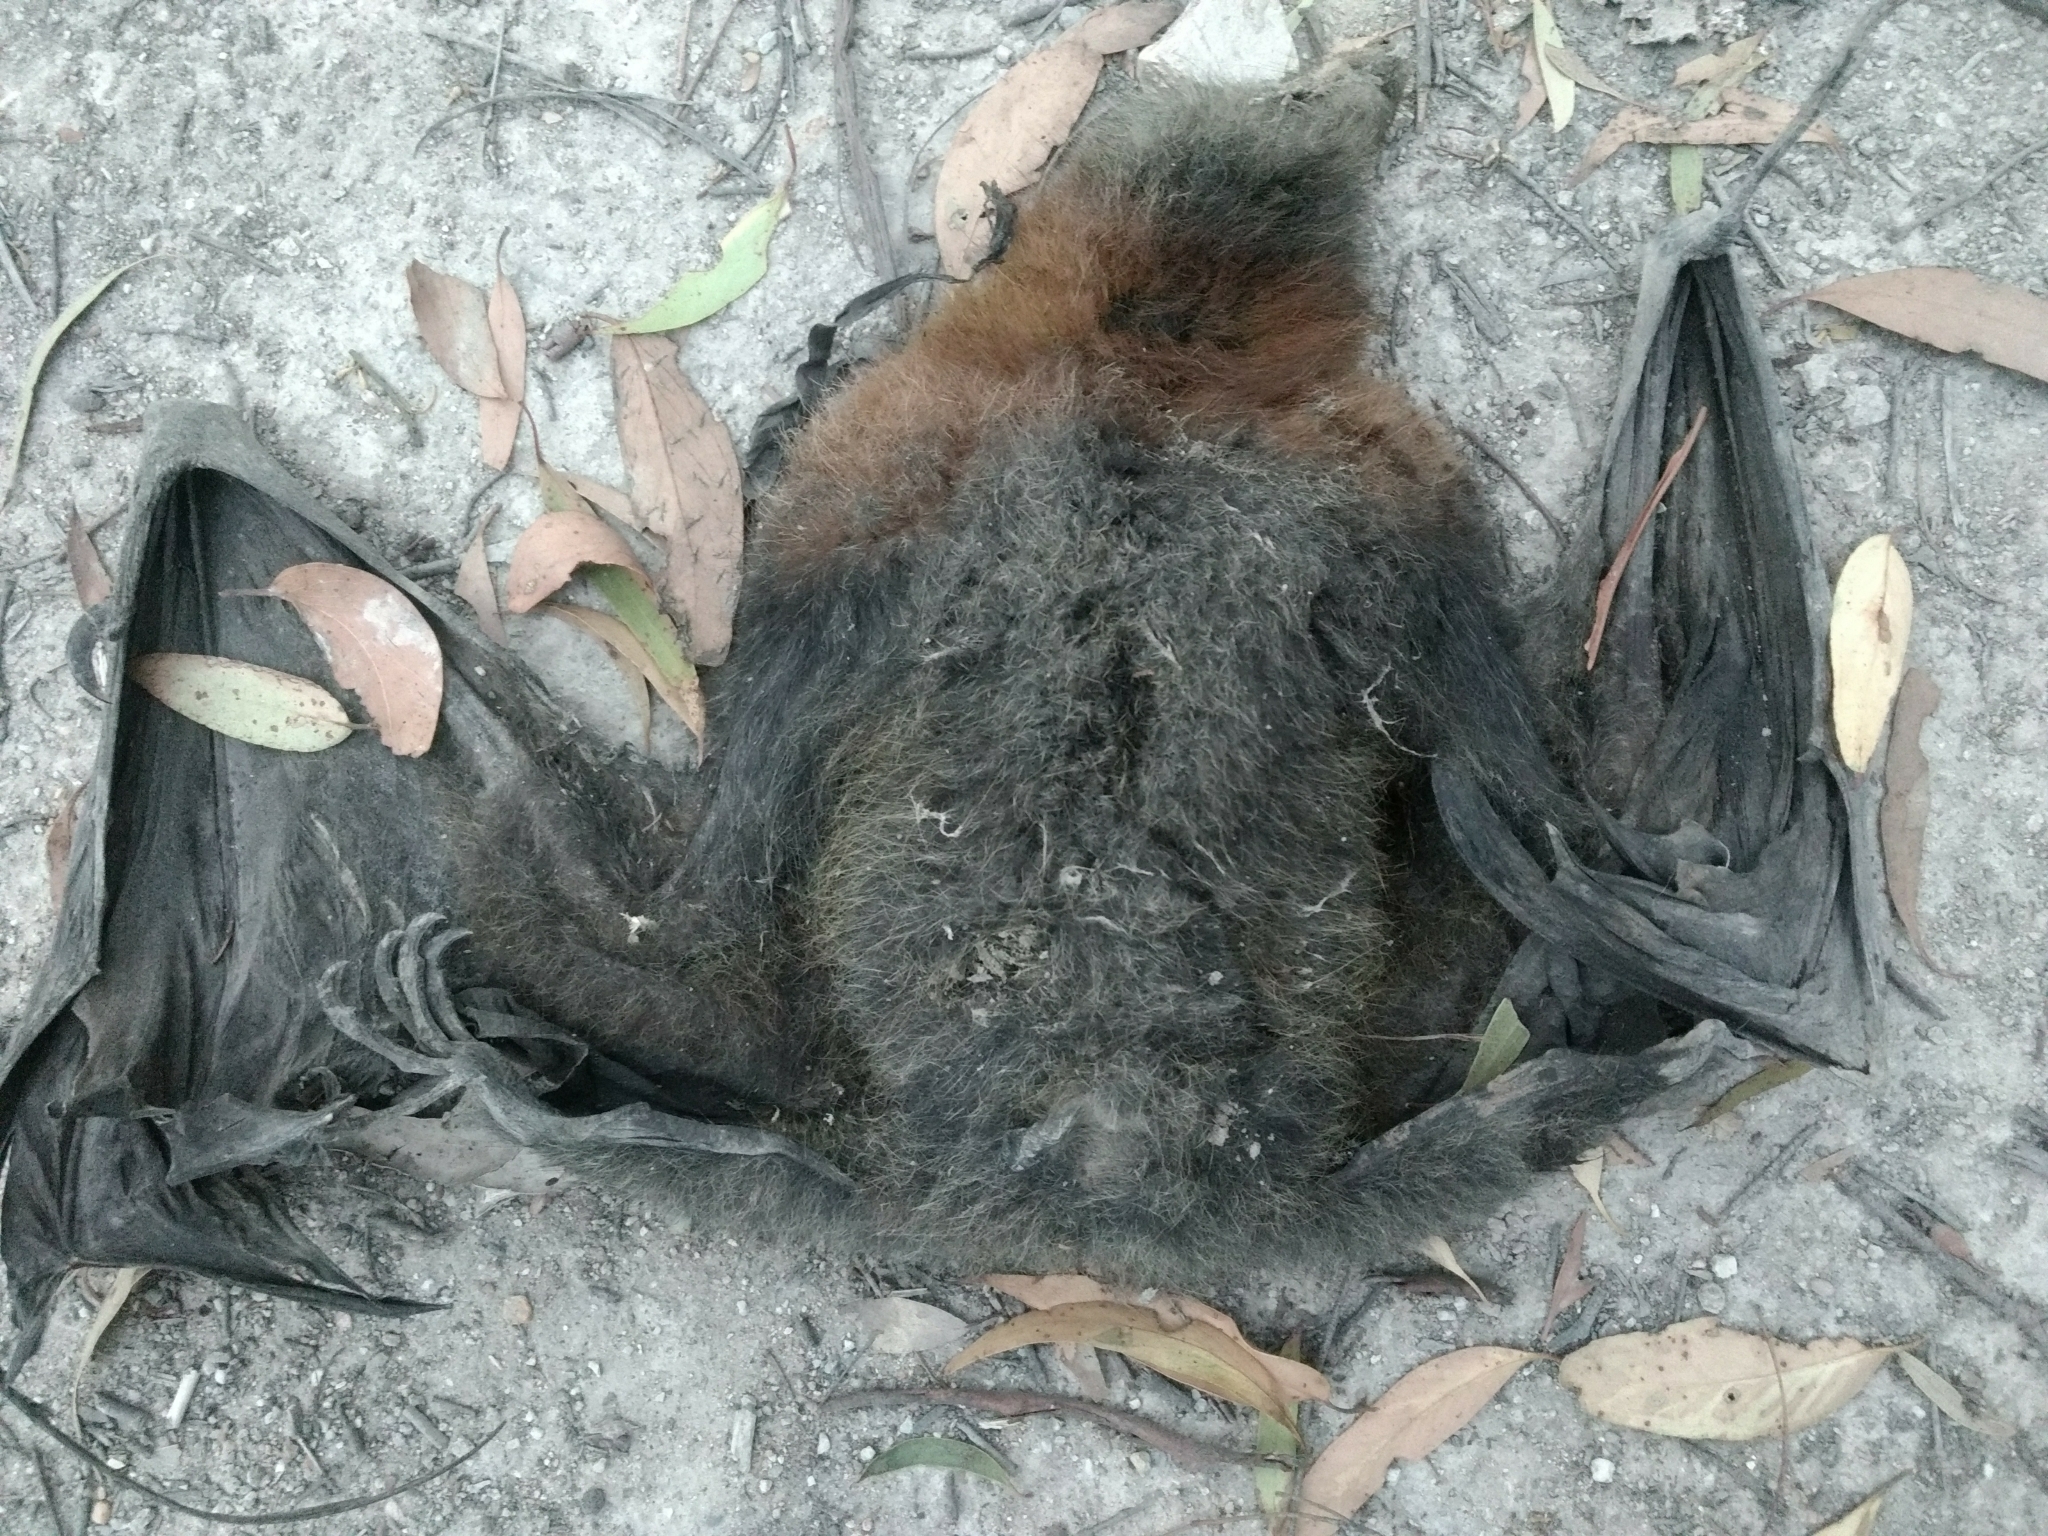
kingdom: Animalia
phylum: Chordata
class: Mammalia
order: Chiroptera
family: Pteropodidae
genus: Pteropus
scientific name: Pteropus poliocephalus
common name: Gray-headed flying fox
